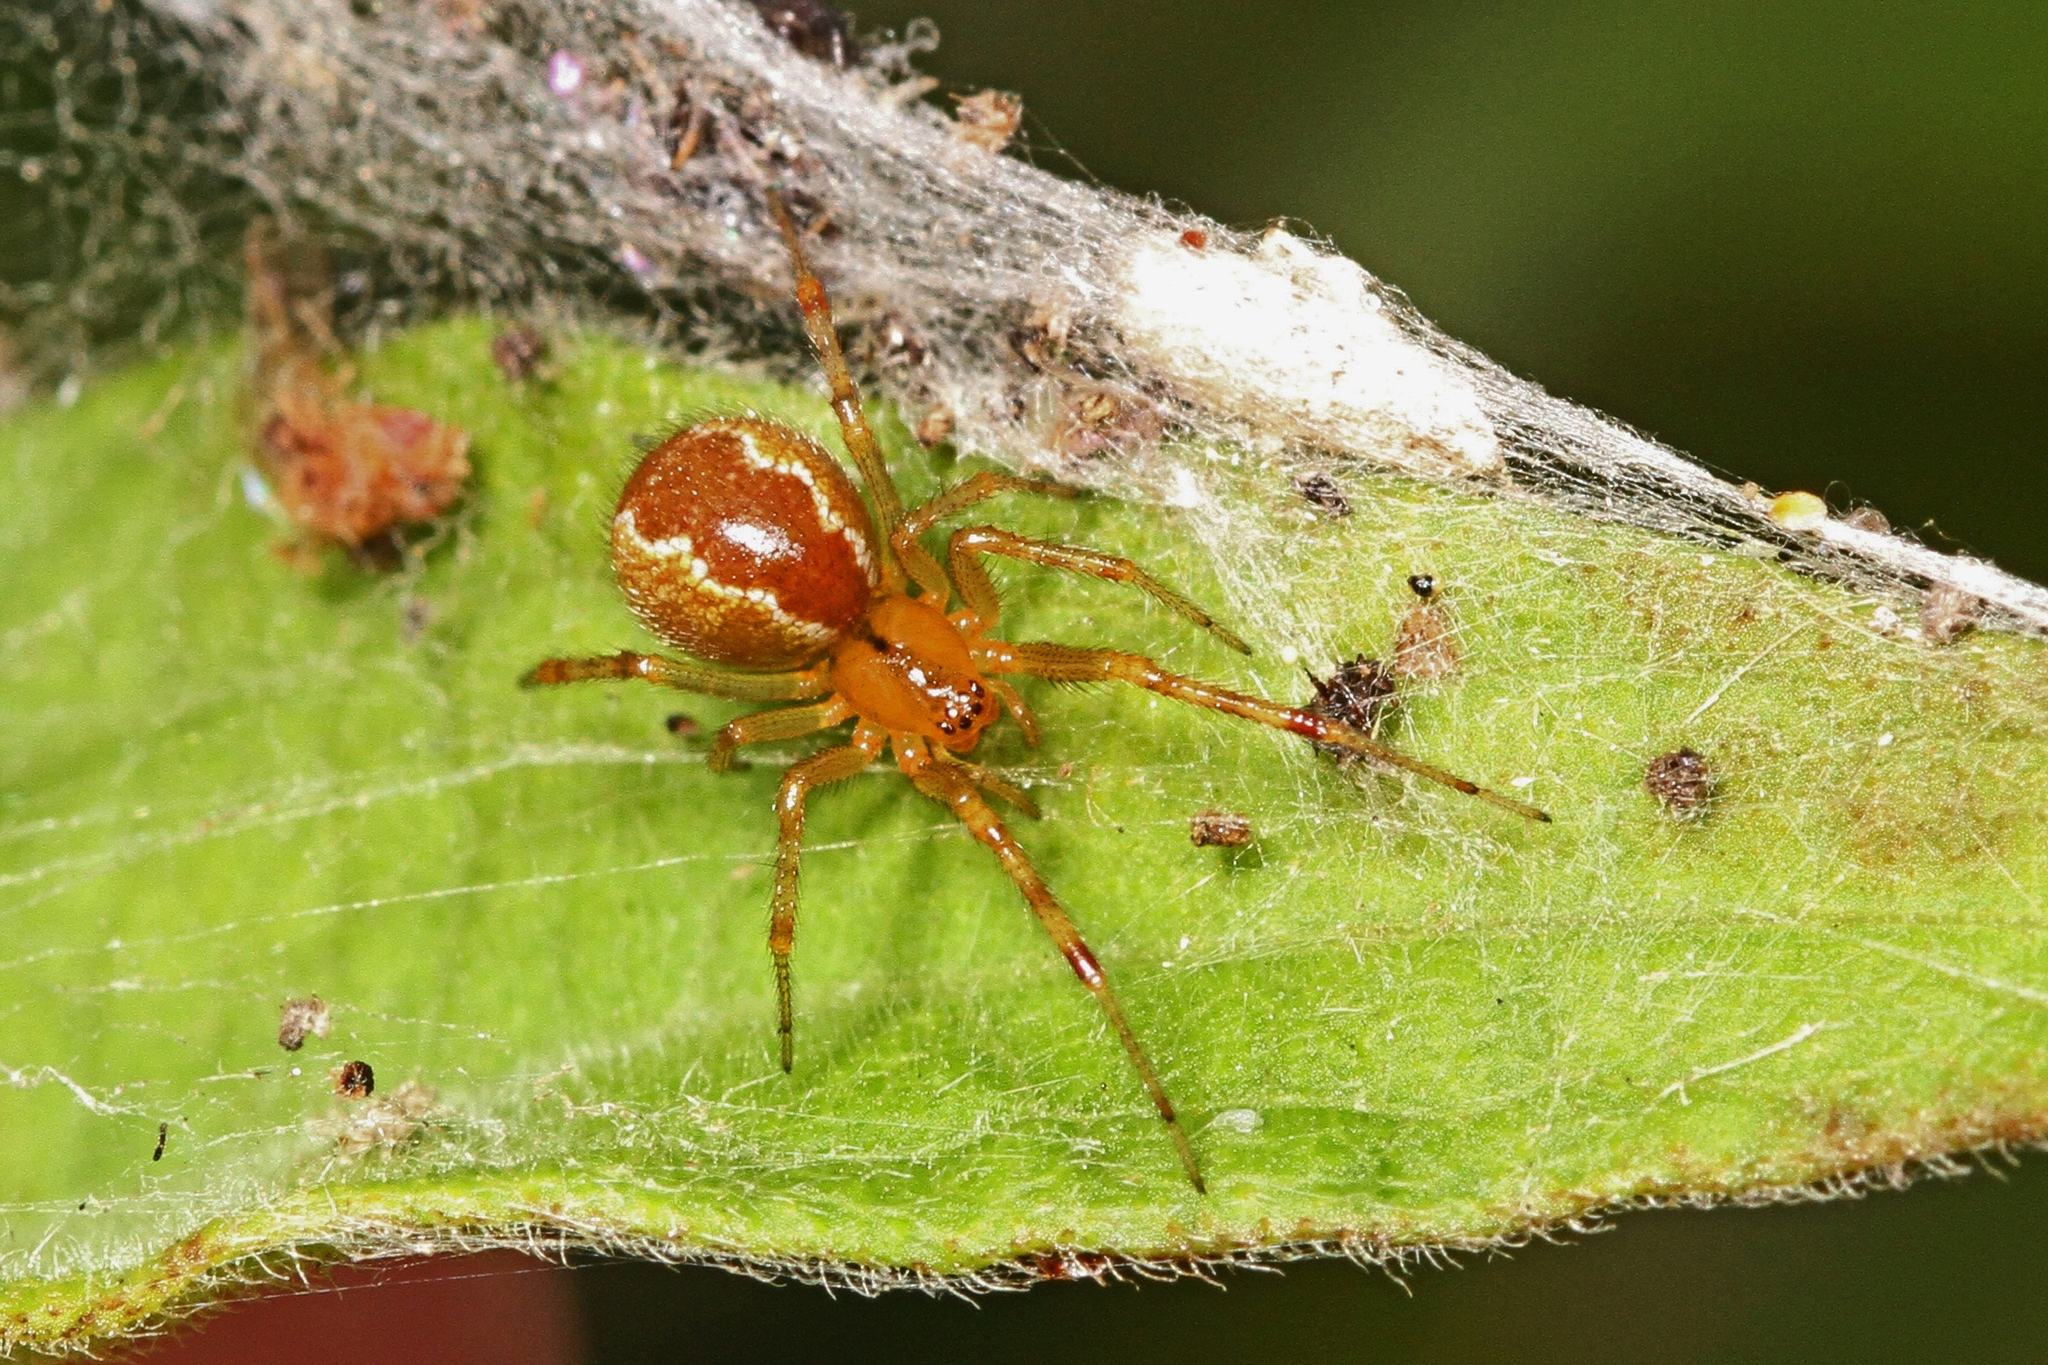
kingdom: Animalia
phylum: Arthropoda
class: Arachnida
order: Araneae
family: Theridiidae
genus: Anelosimus
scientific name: Anelosimus studiosus
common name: Cobweb spiders
